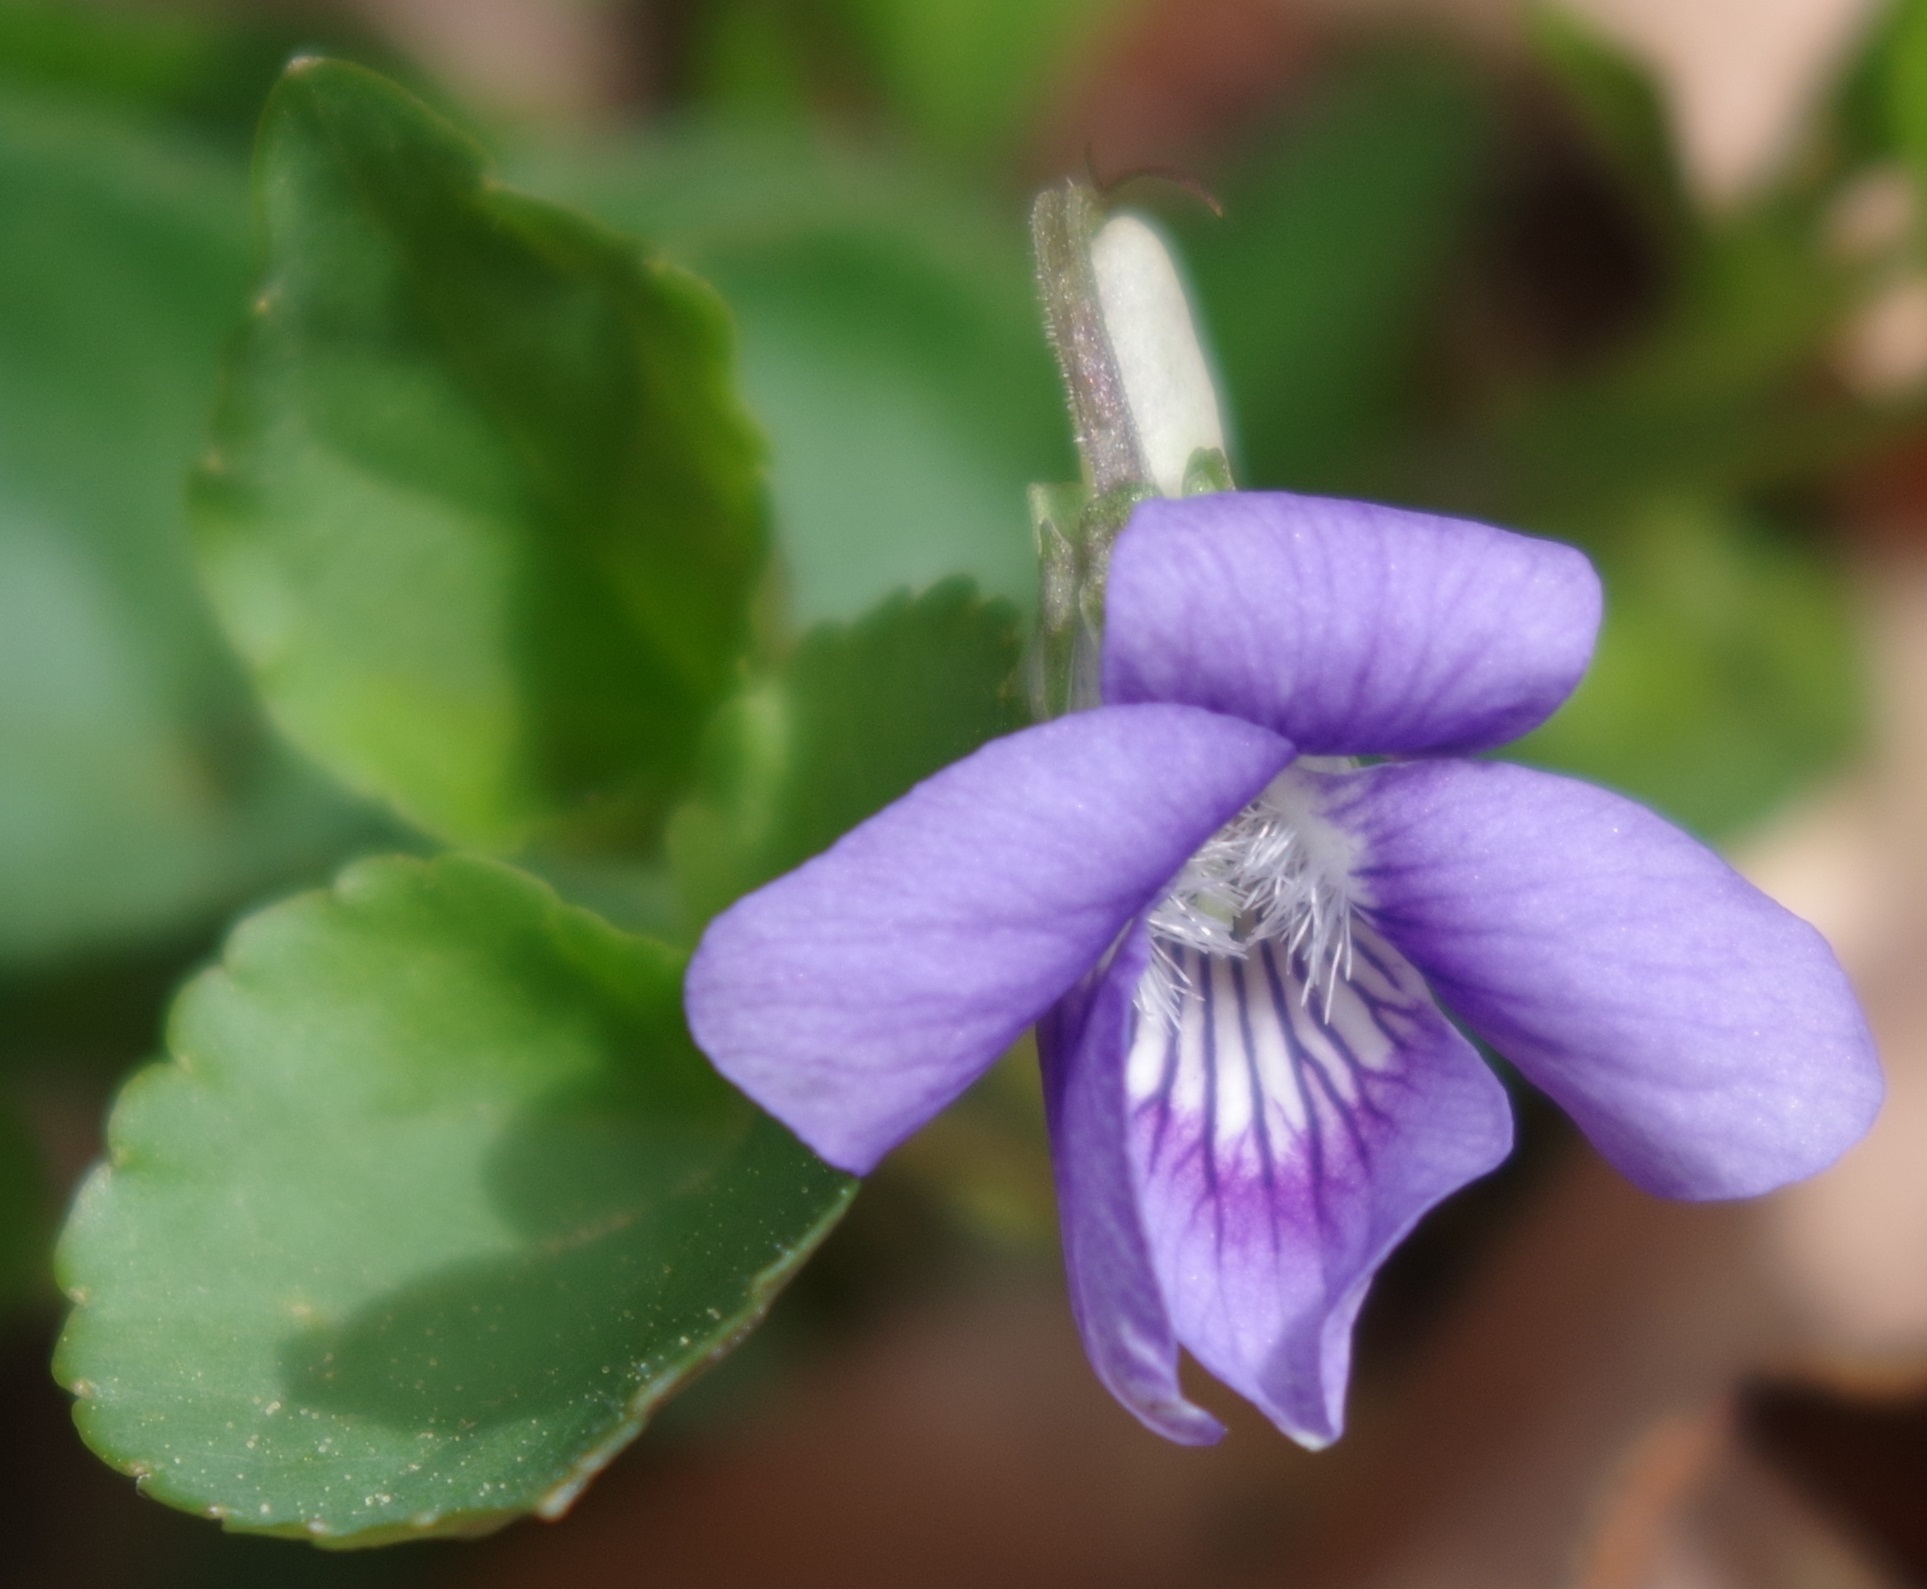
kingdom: Plantae
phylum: Tracheophyta
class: Magnoliopsida
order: Malpighiales
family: Violaceae
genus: Viola
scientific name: Viola riviniana
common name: Common dog-violet
